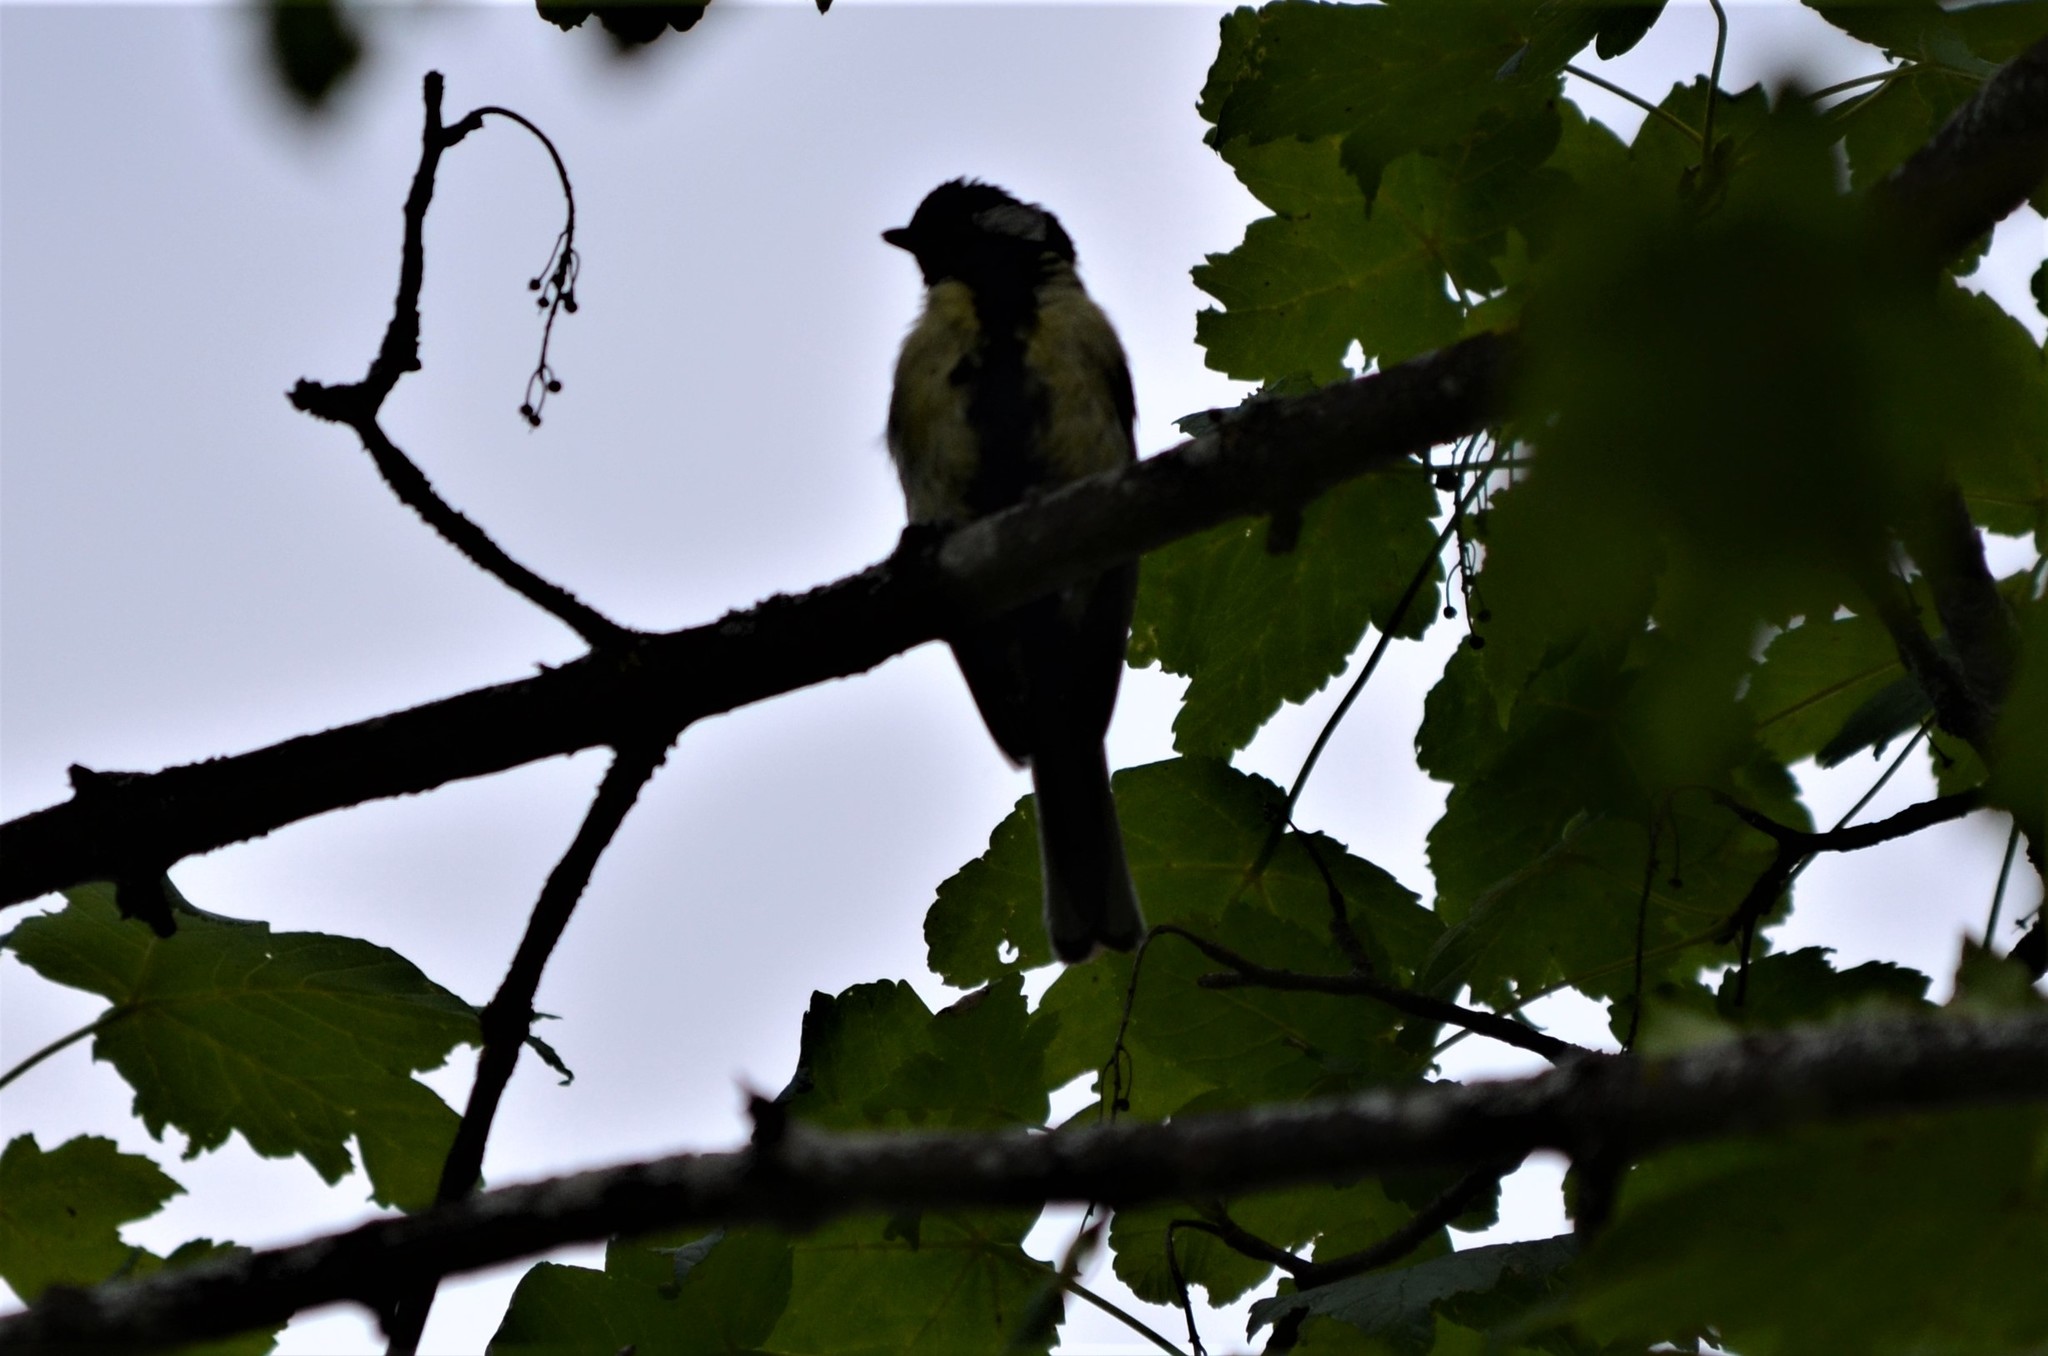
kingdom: Animalia
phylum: Chordata
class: Aves
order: Passeriformes
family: Paridae
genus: Parus
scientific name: Parus major
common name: Great tit
